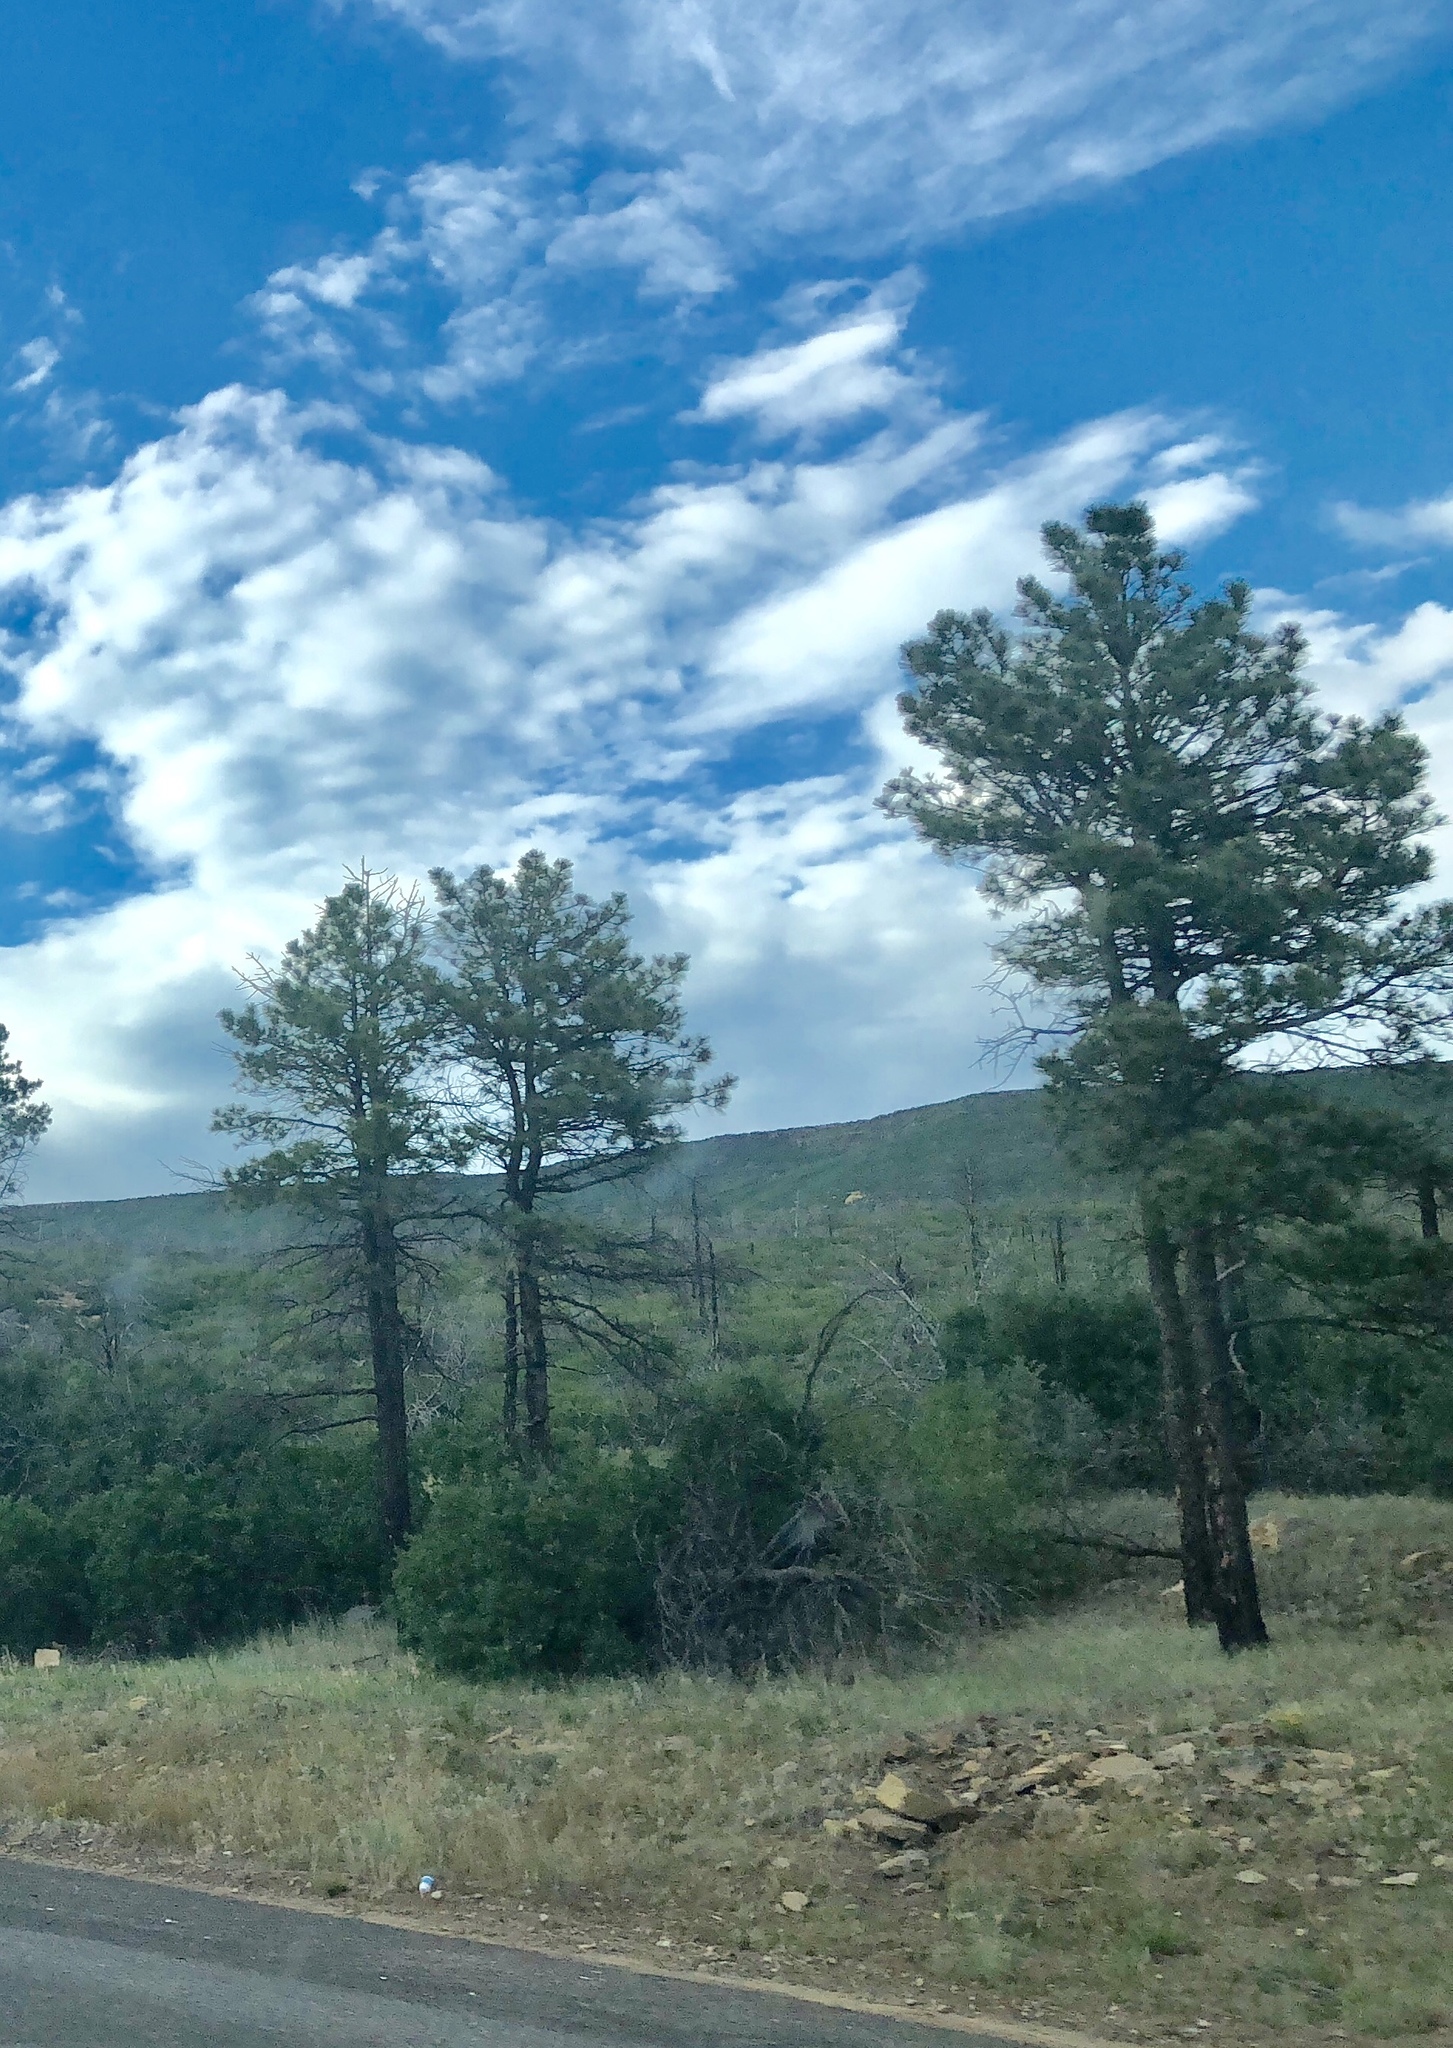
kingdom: Plantae
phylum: Tracheophyta
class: Pinopsida
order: Pinales
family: Pinaceae
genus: Pinus
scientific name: Pinus ponderosa
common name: Western yellow-pine
